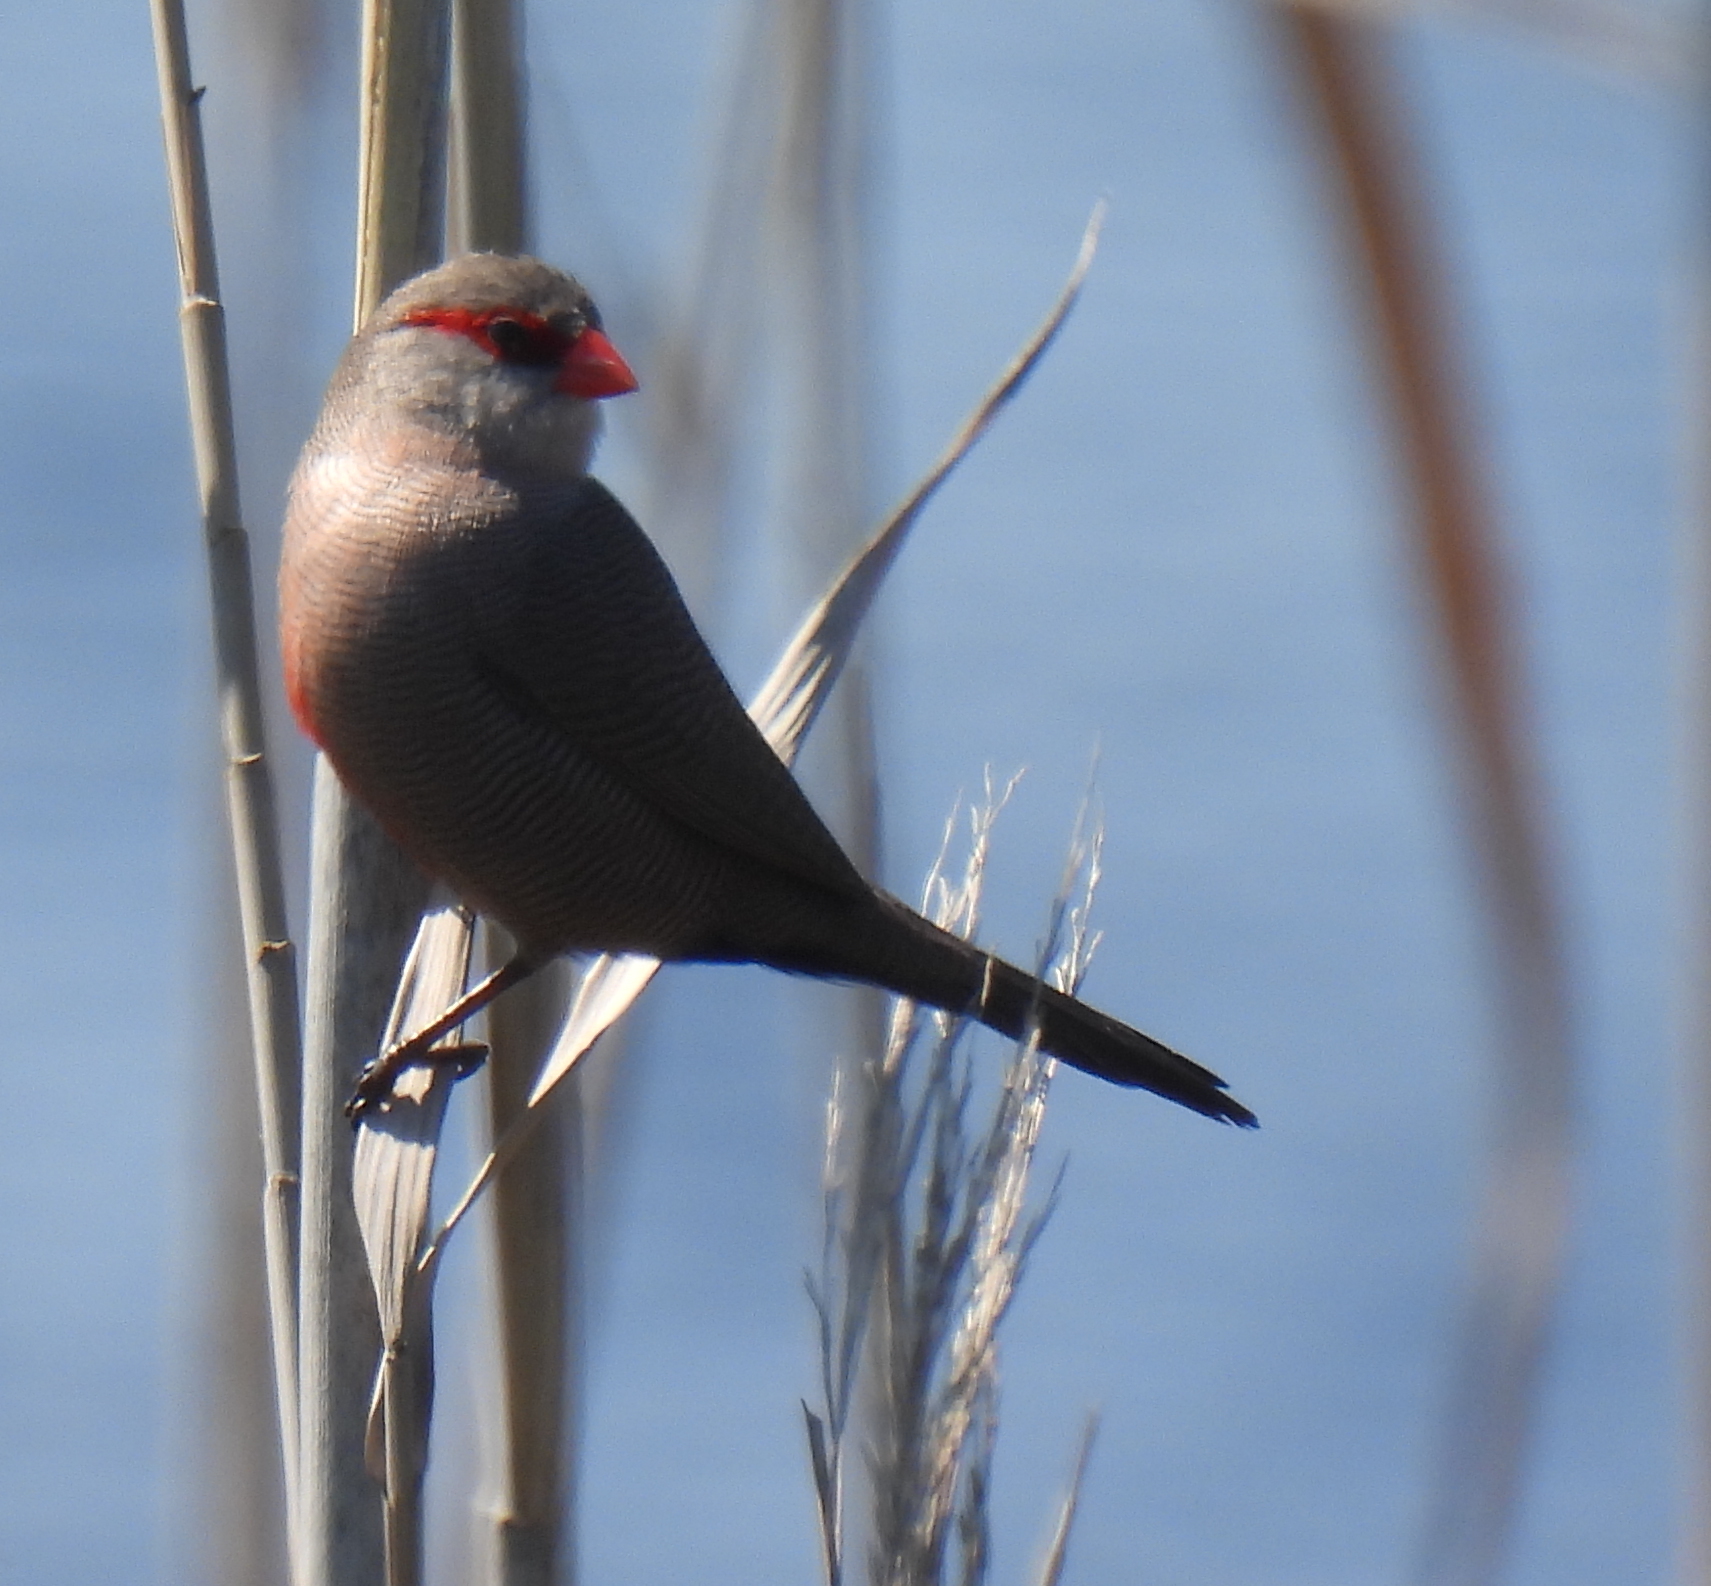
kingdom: Animalia
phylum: Chordata
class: Aves
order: Passeriformes
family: Estrildidae
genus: Estrilda
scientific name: Estrilda astrild
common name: Common waxbill
